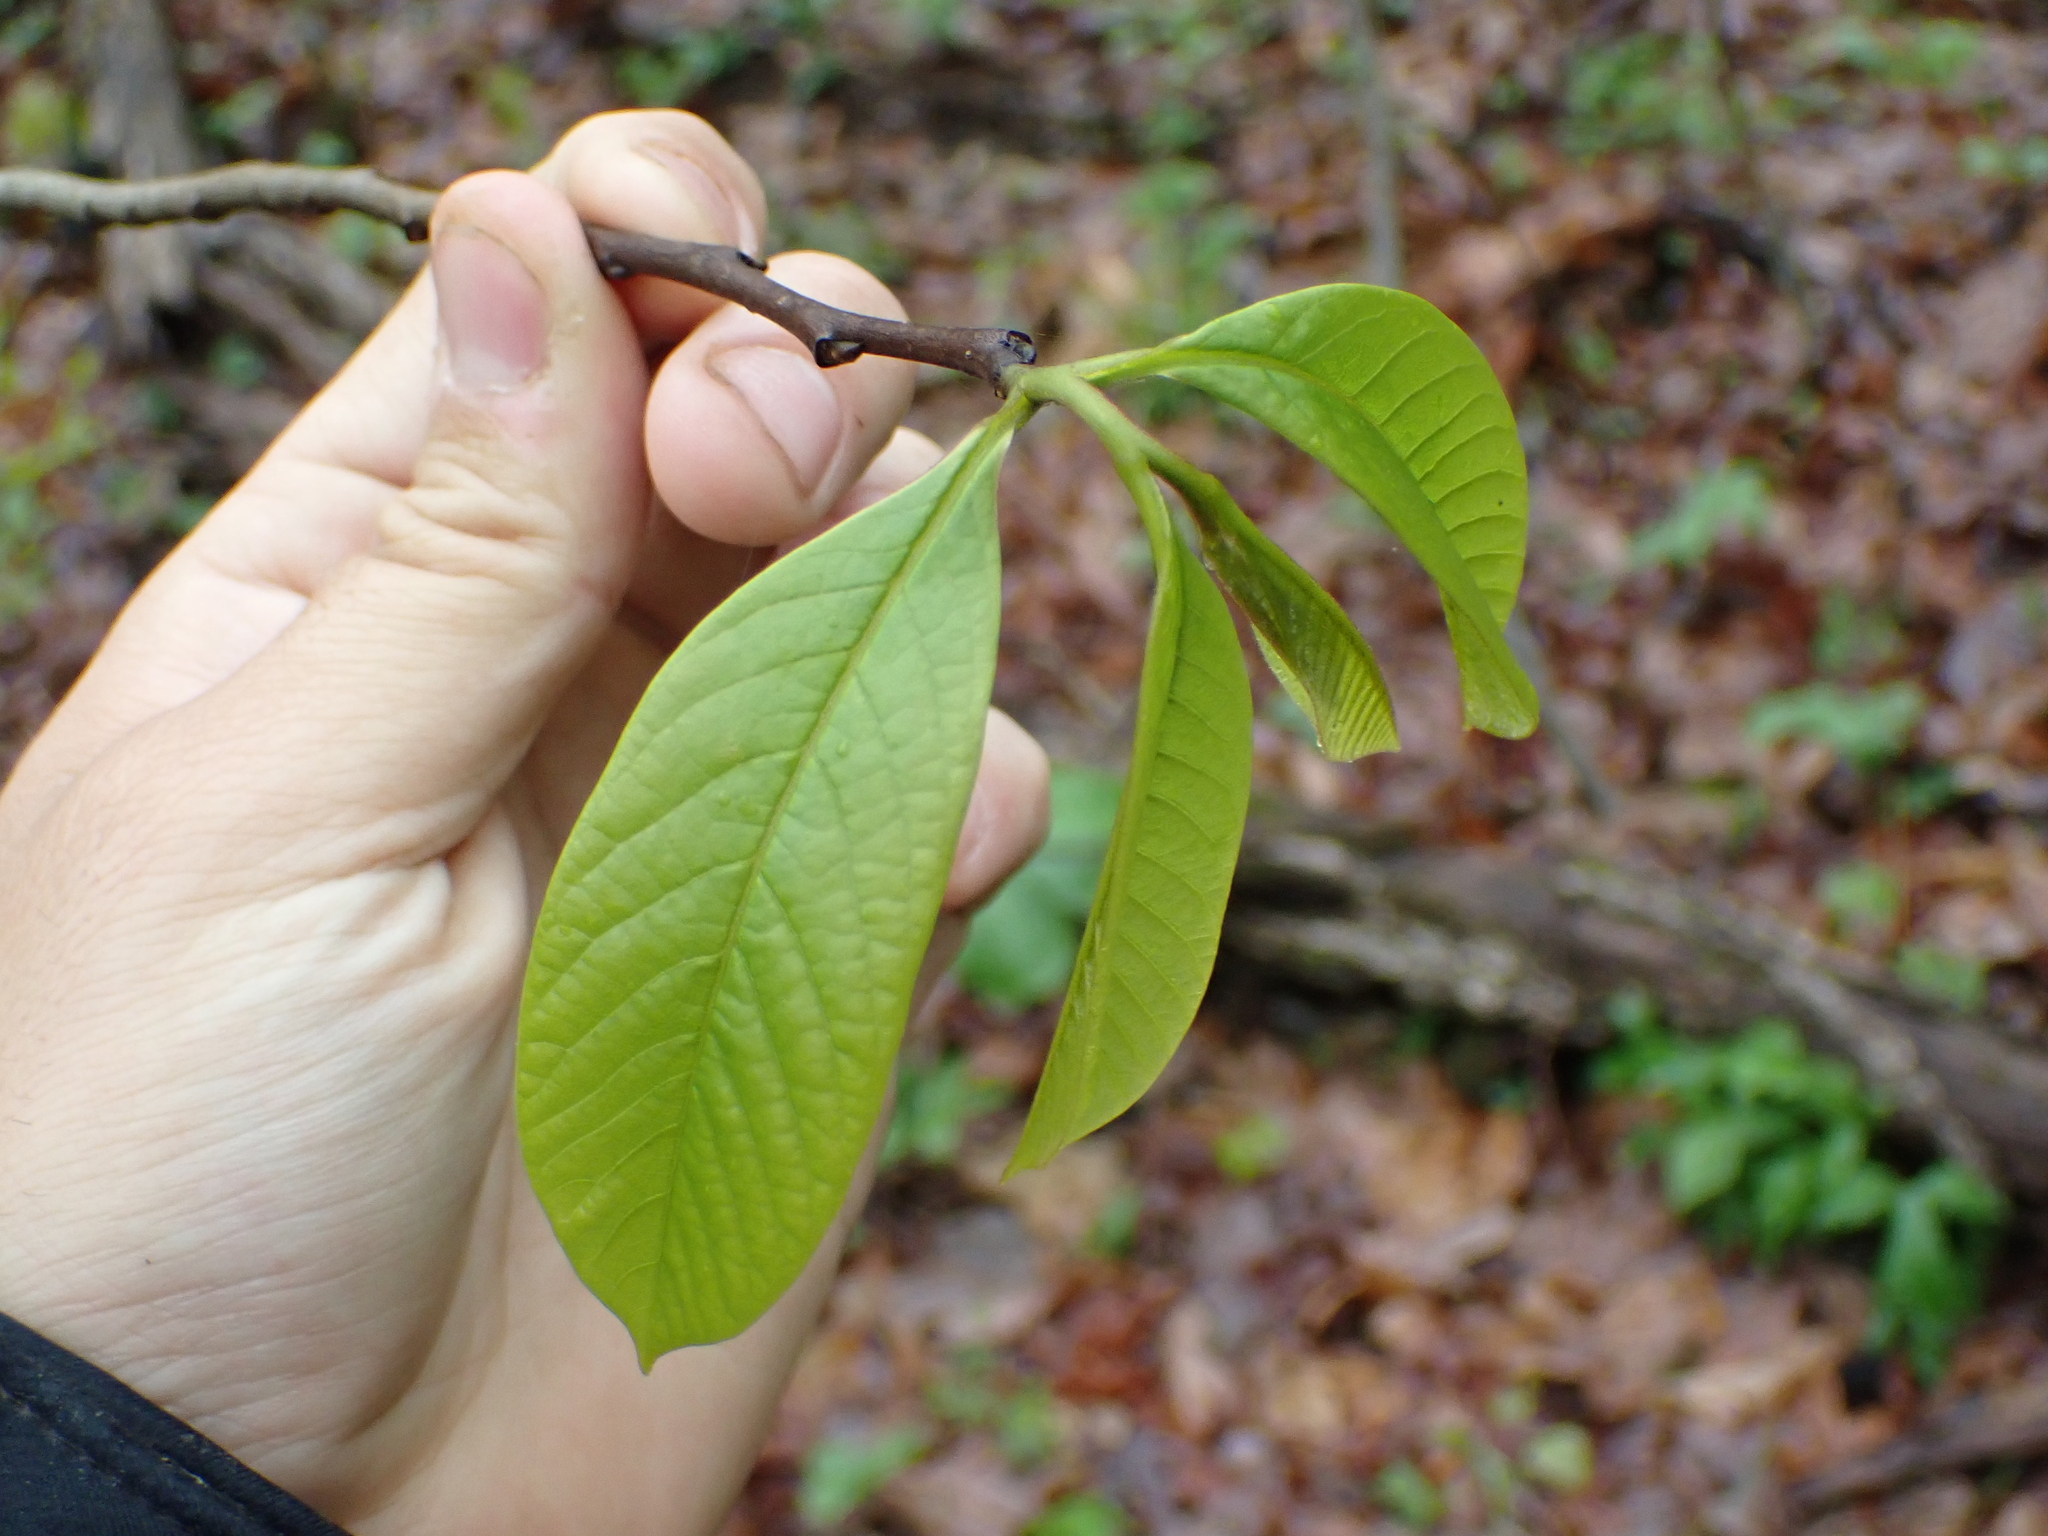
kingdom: Plantae
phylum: Tracheophyta
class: Magnoliopsida
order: Magnoliales
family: Annonaceae
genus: Asimina
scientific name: Asimina triloba
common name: Dog-banana
